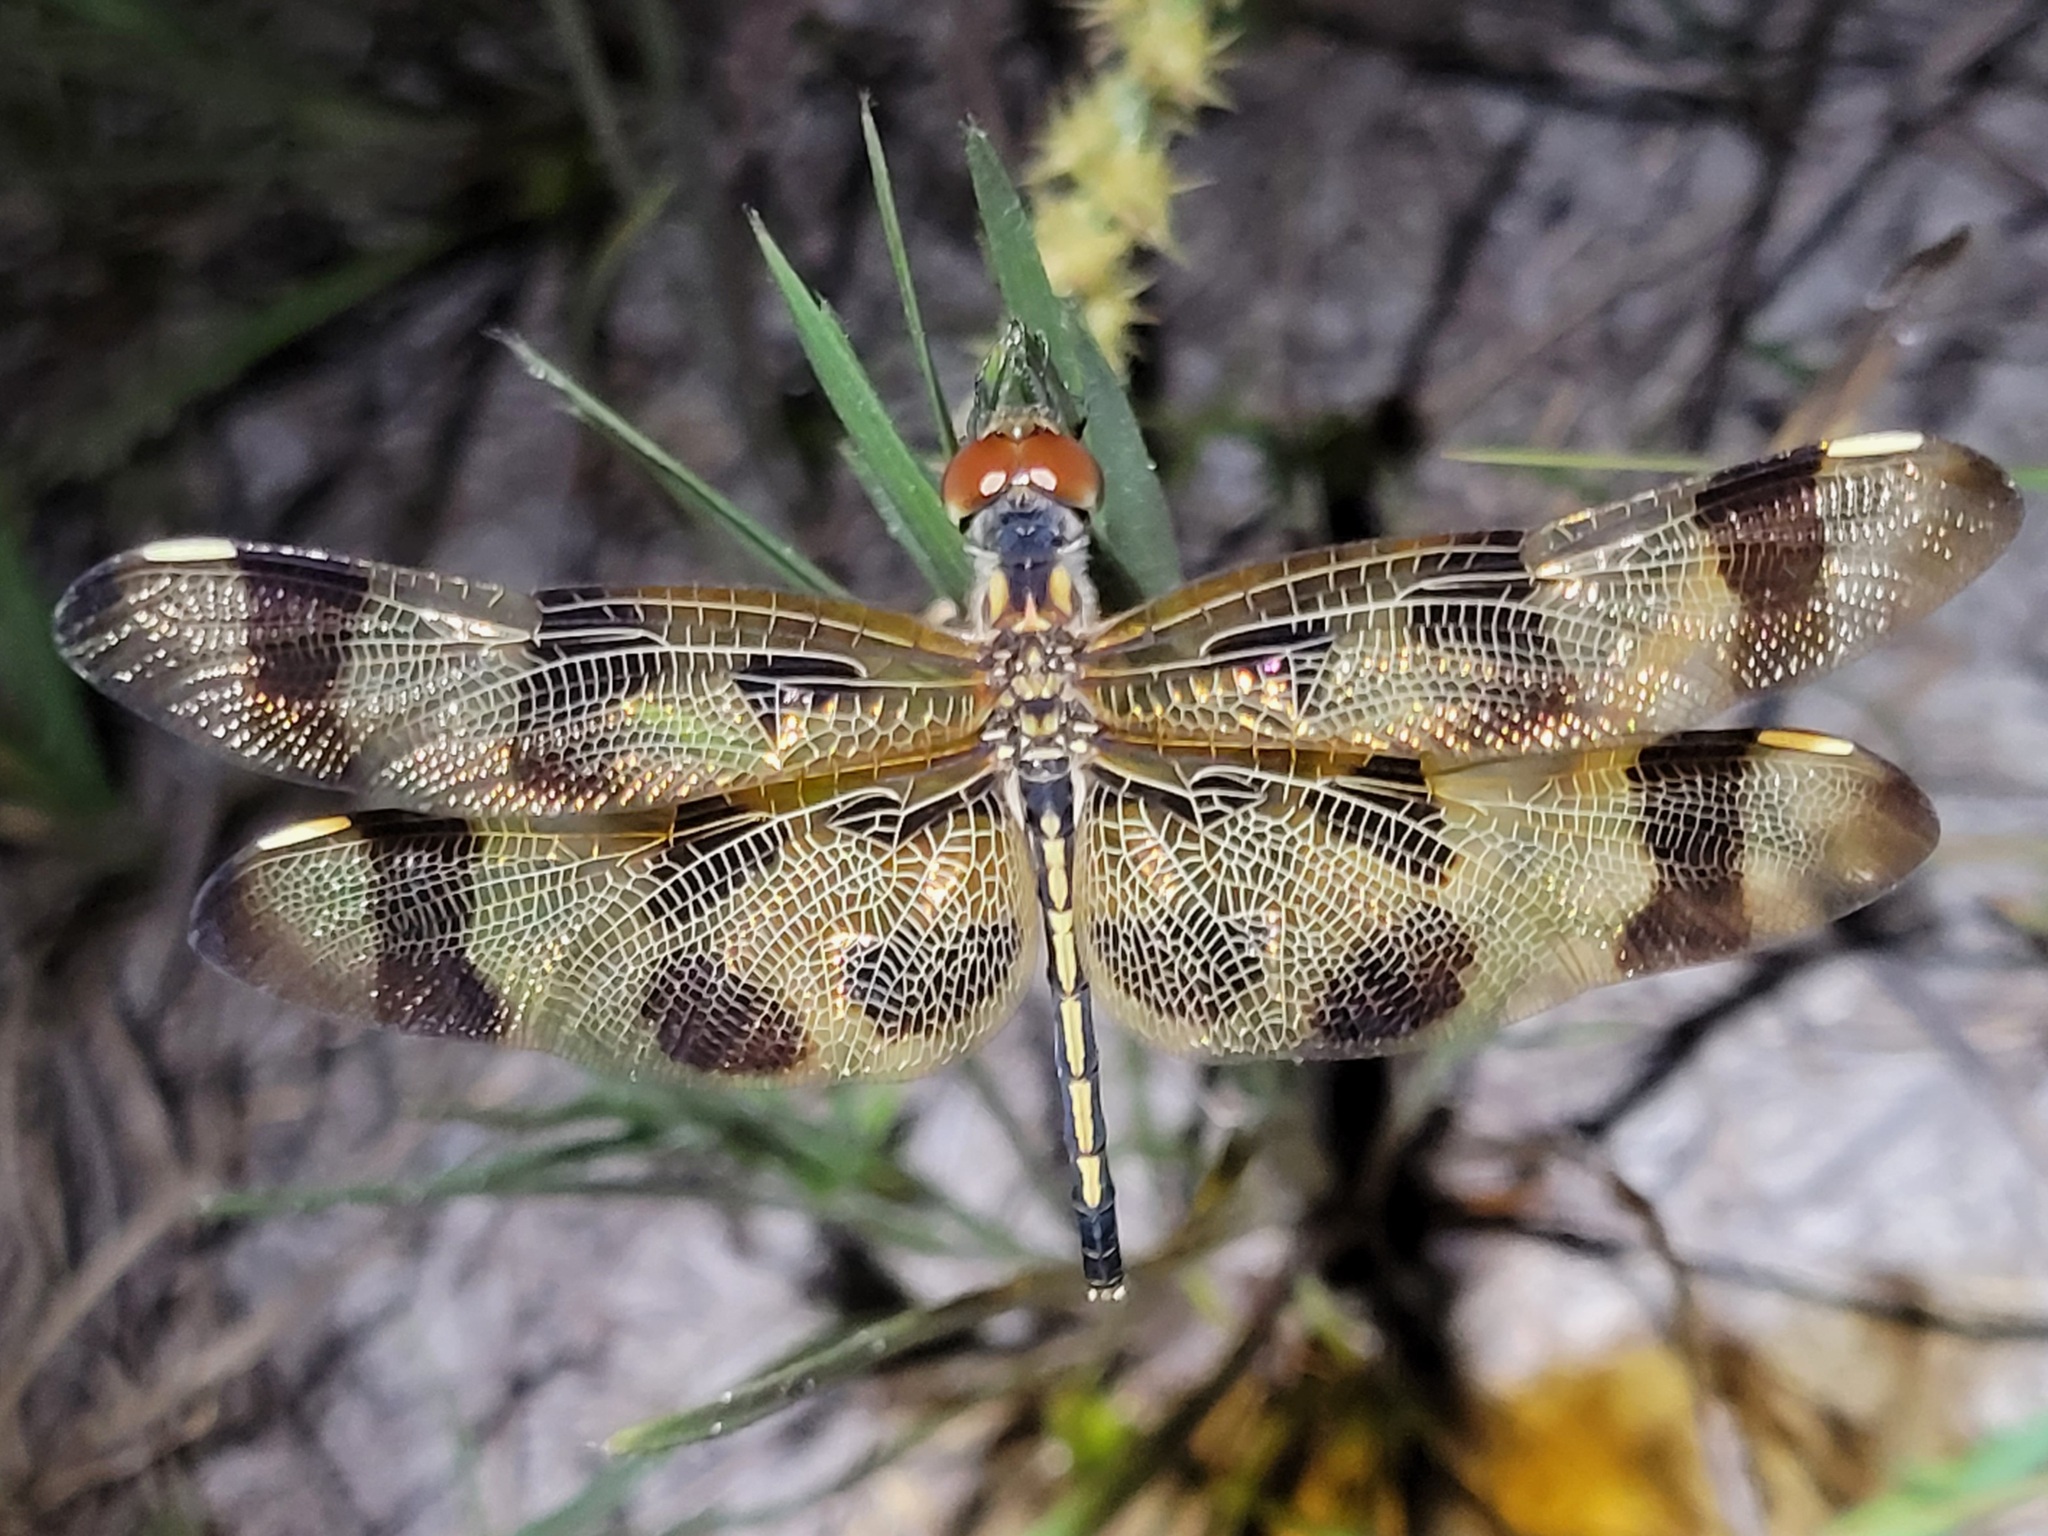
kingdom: Animalia
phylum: Arthropoda
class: Insecta
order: Odonata
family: Libellulidae
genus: Celithemis
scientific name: Celithemis eponina
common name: Halloween pennant
